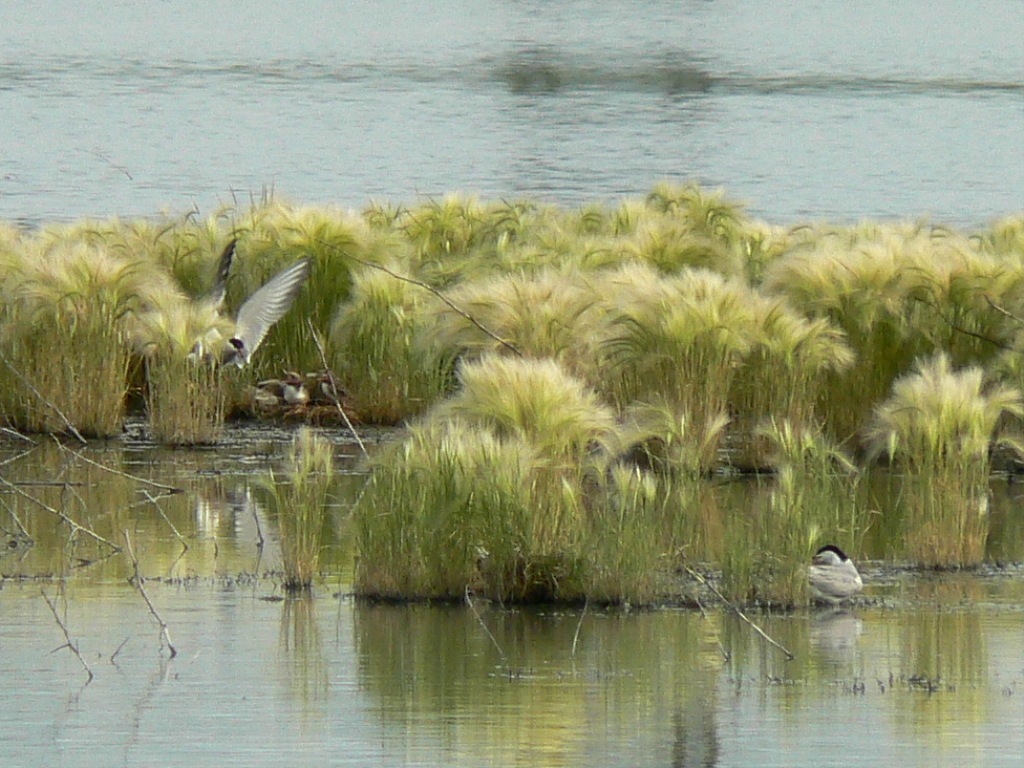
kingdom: Animalia
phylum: Chordata
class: Aves
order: Charadriiformes
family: Laridae
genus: Sterna
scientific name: Sterna hirundo
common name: Common tern
